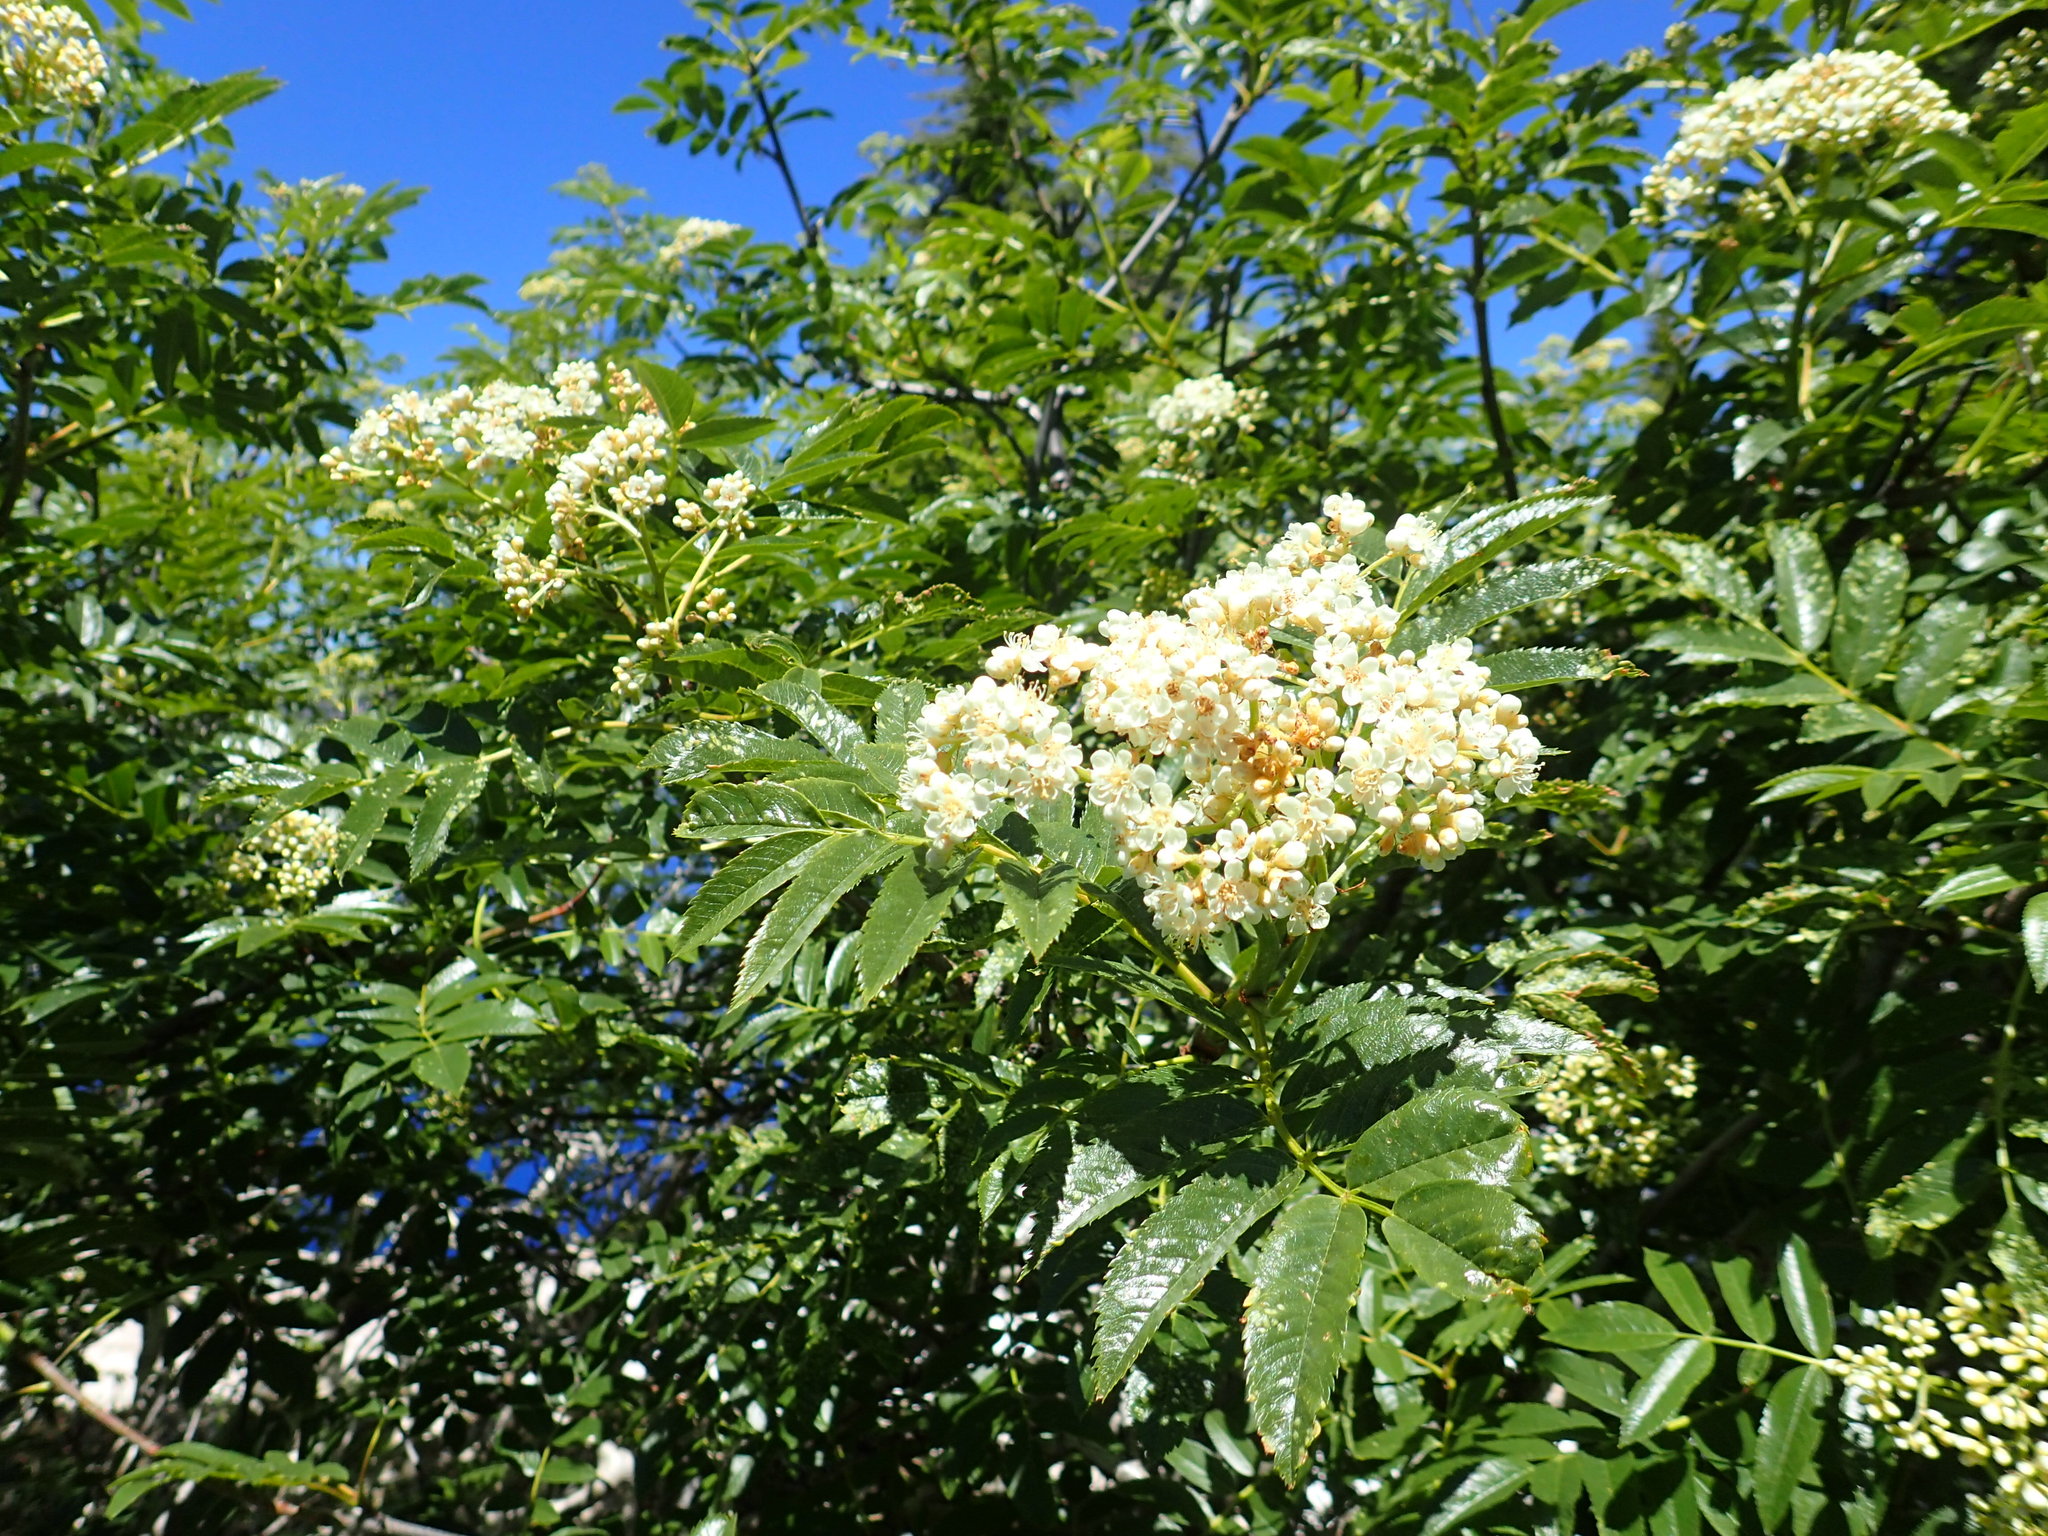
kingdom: Plantae
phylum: Tracheophyta
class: Magnoliopsida
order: Rosales
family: Rosaceae
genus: Sorbus
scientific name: Sorbus scopulina
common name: Greene's mountain-ash
